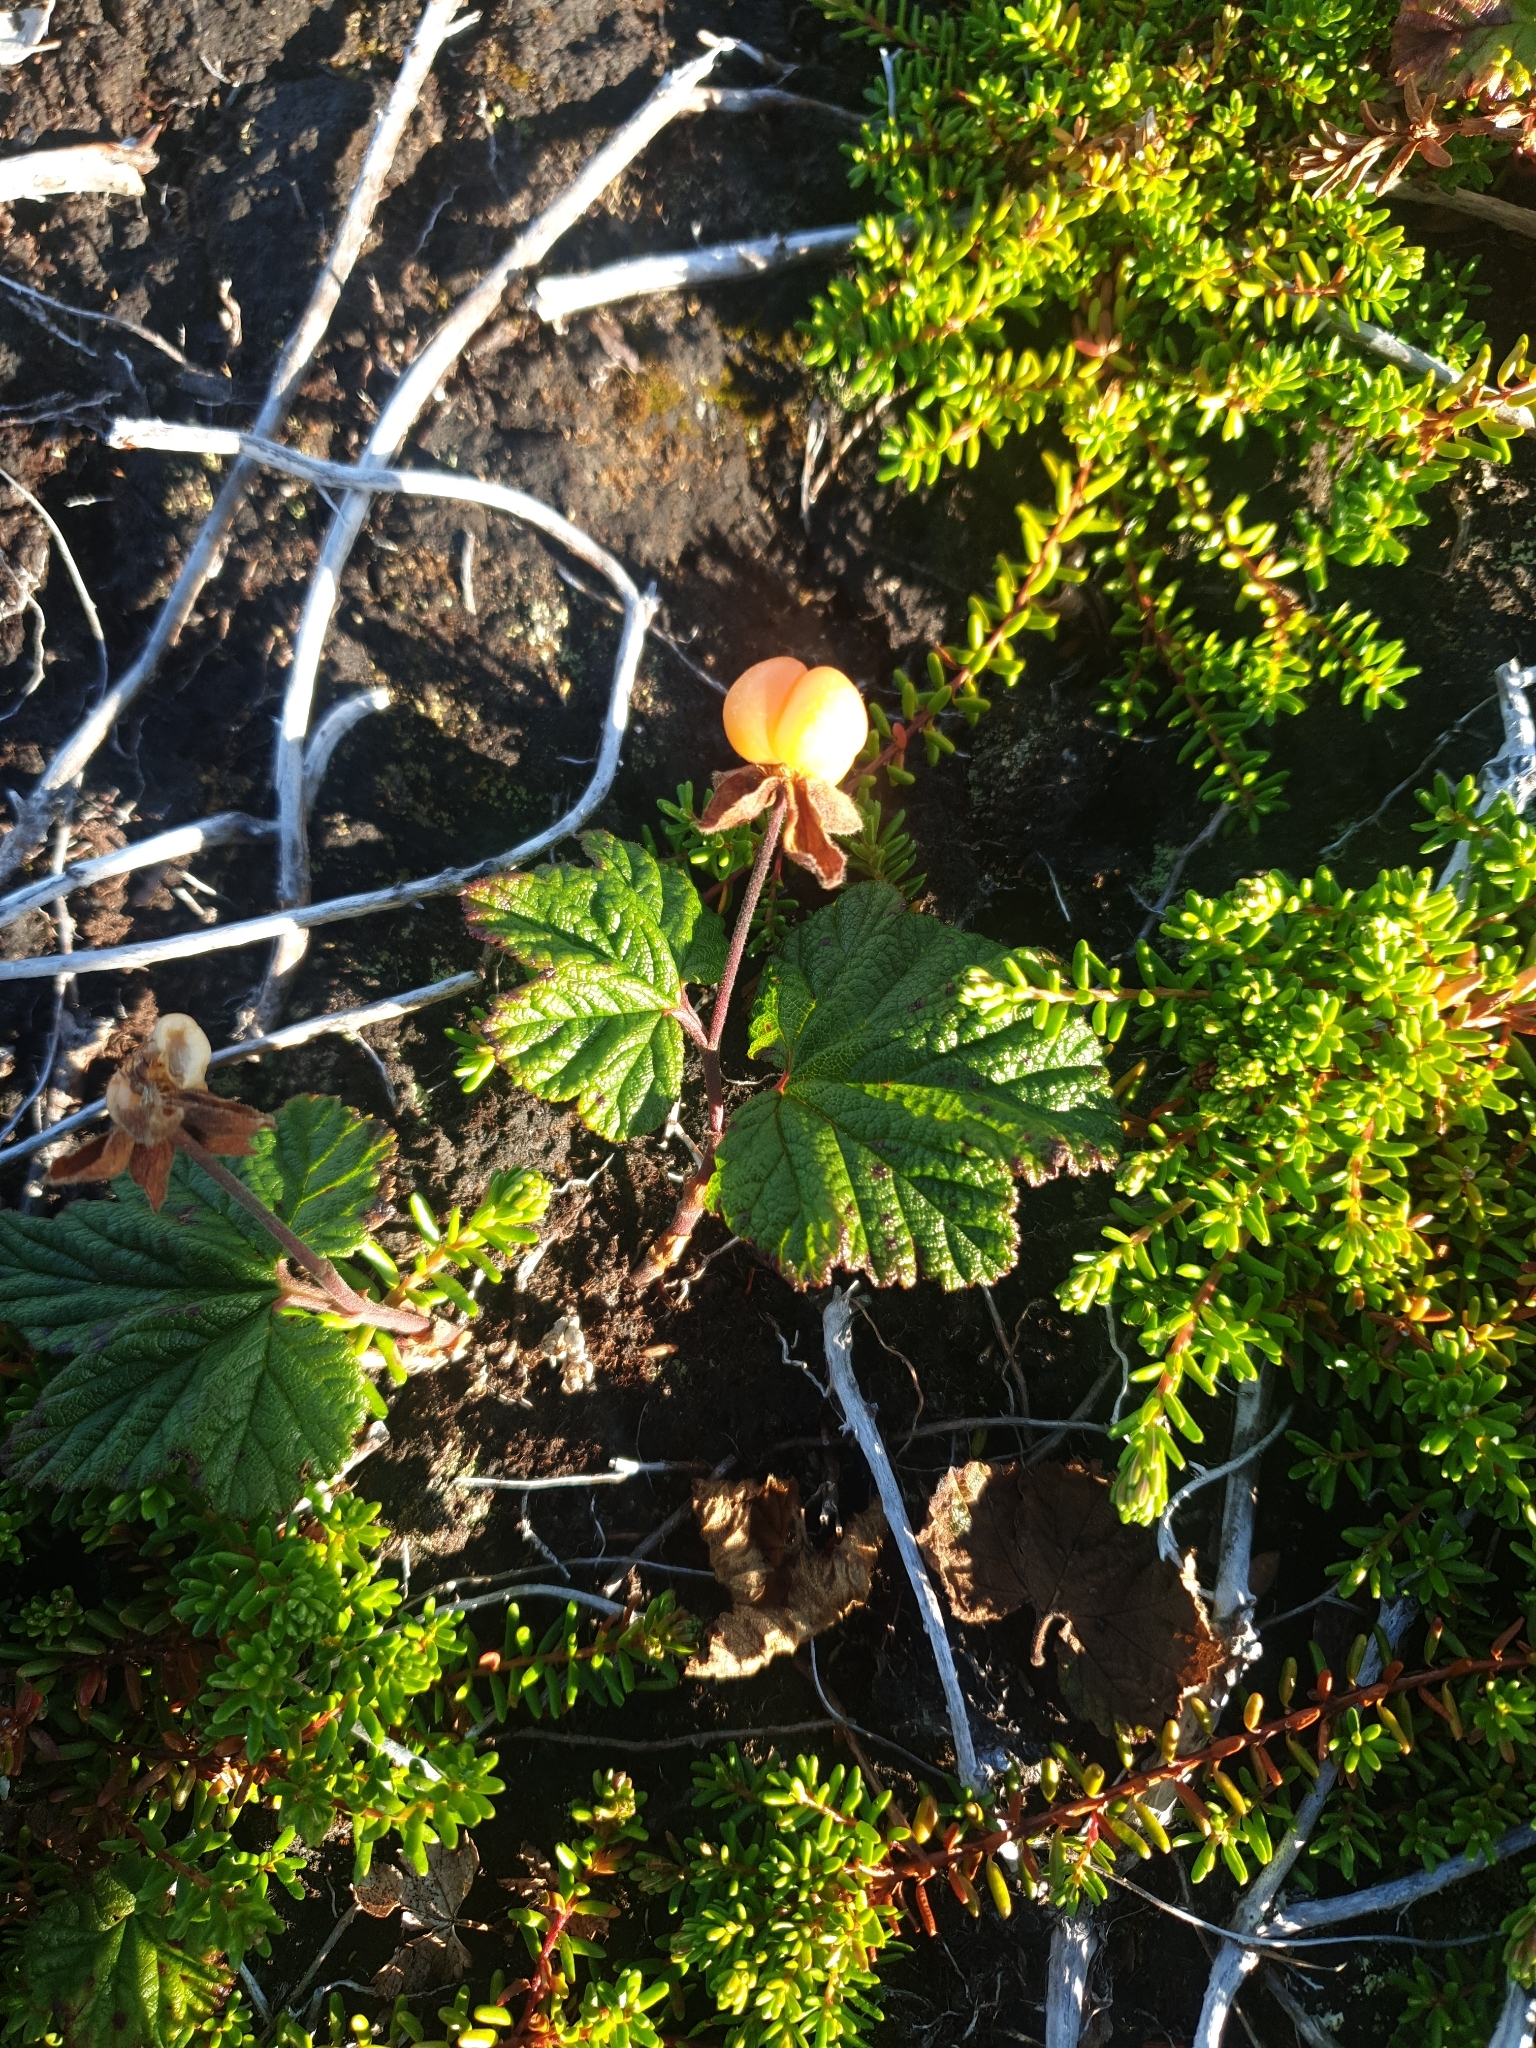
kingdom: Plantae
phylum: Tracheophyta
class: Magnoliopsida
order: Rosales
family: Rosaceae
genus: Rubus
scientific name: Rubus chamaemorus
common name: Cloudberry
